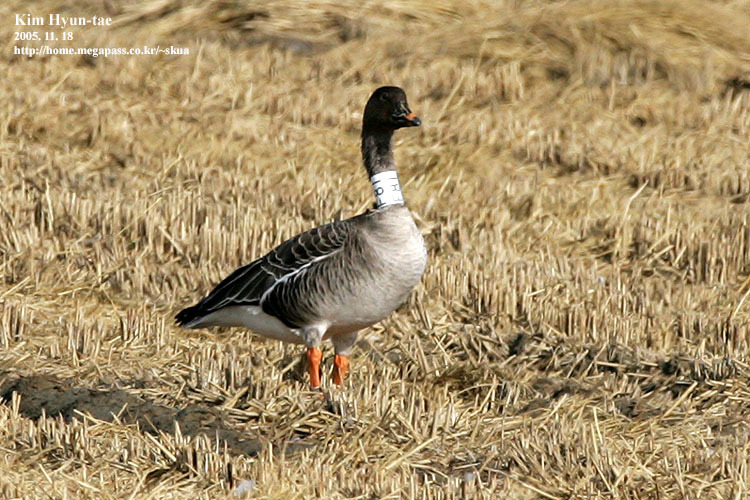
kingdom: Animalia
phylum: Chordata
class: Aves
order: Anseriformes
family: Anatidae
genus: Anser
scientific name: Anser fabalis
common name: Bean goose
